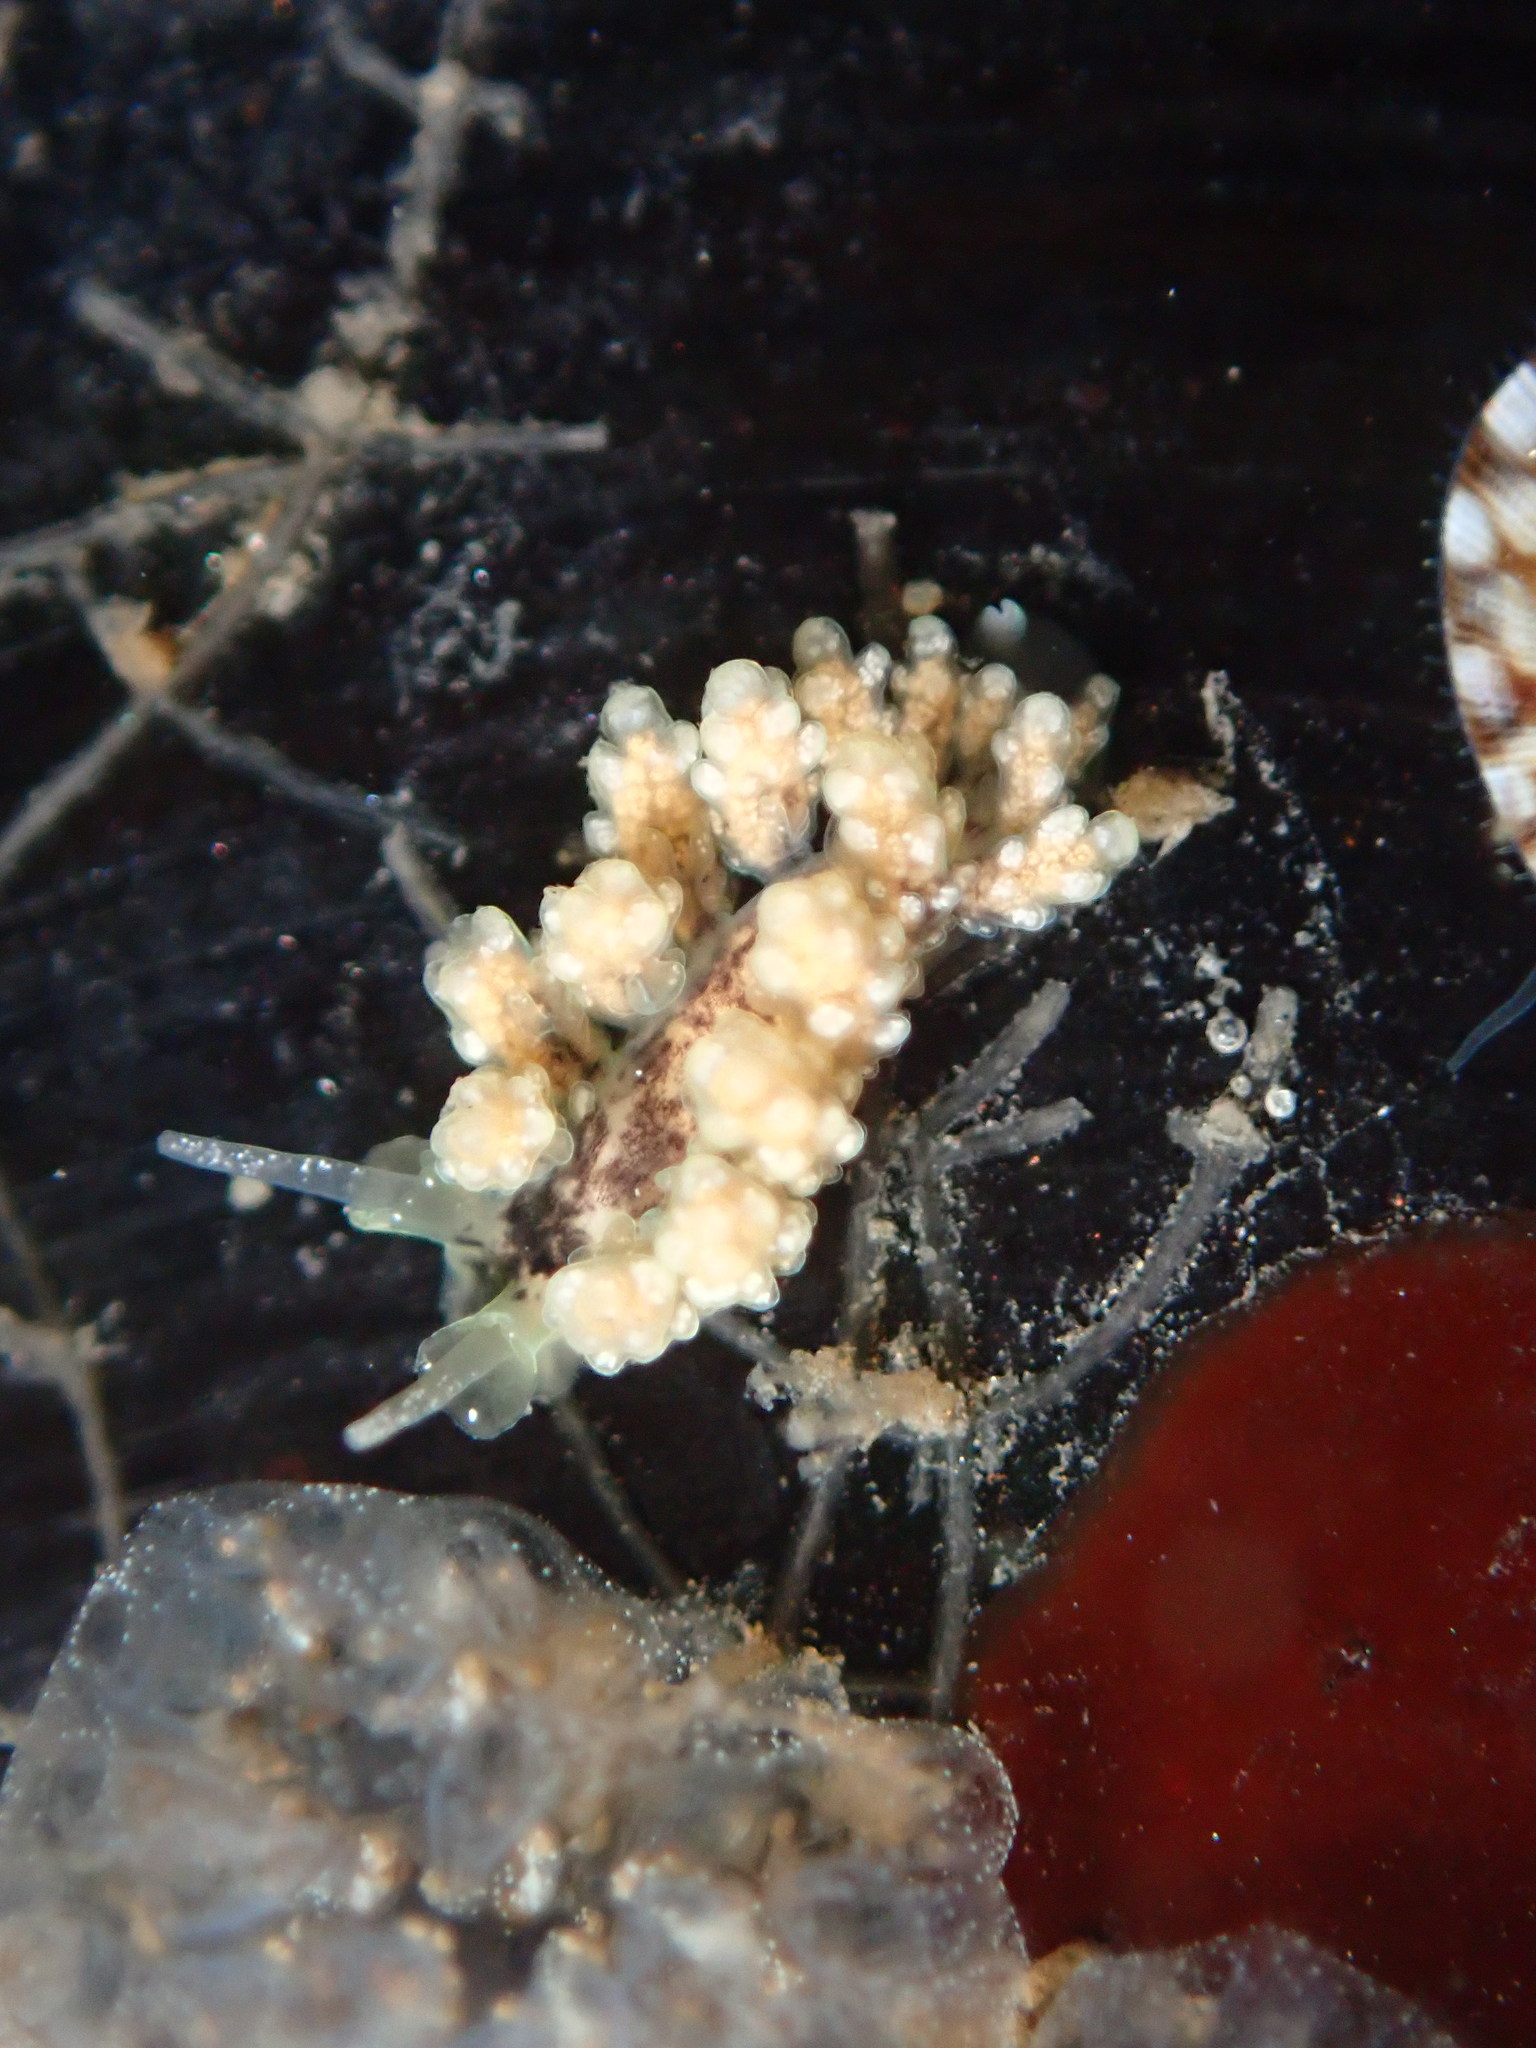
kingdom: Animalia
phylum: Mollusca
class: Gastropoda
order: Nudibranchia
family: Dotidae
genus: Doto
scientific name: Doto kya
